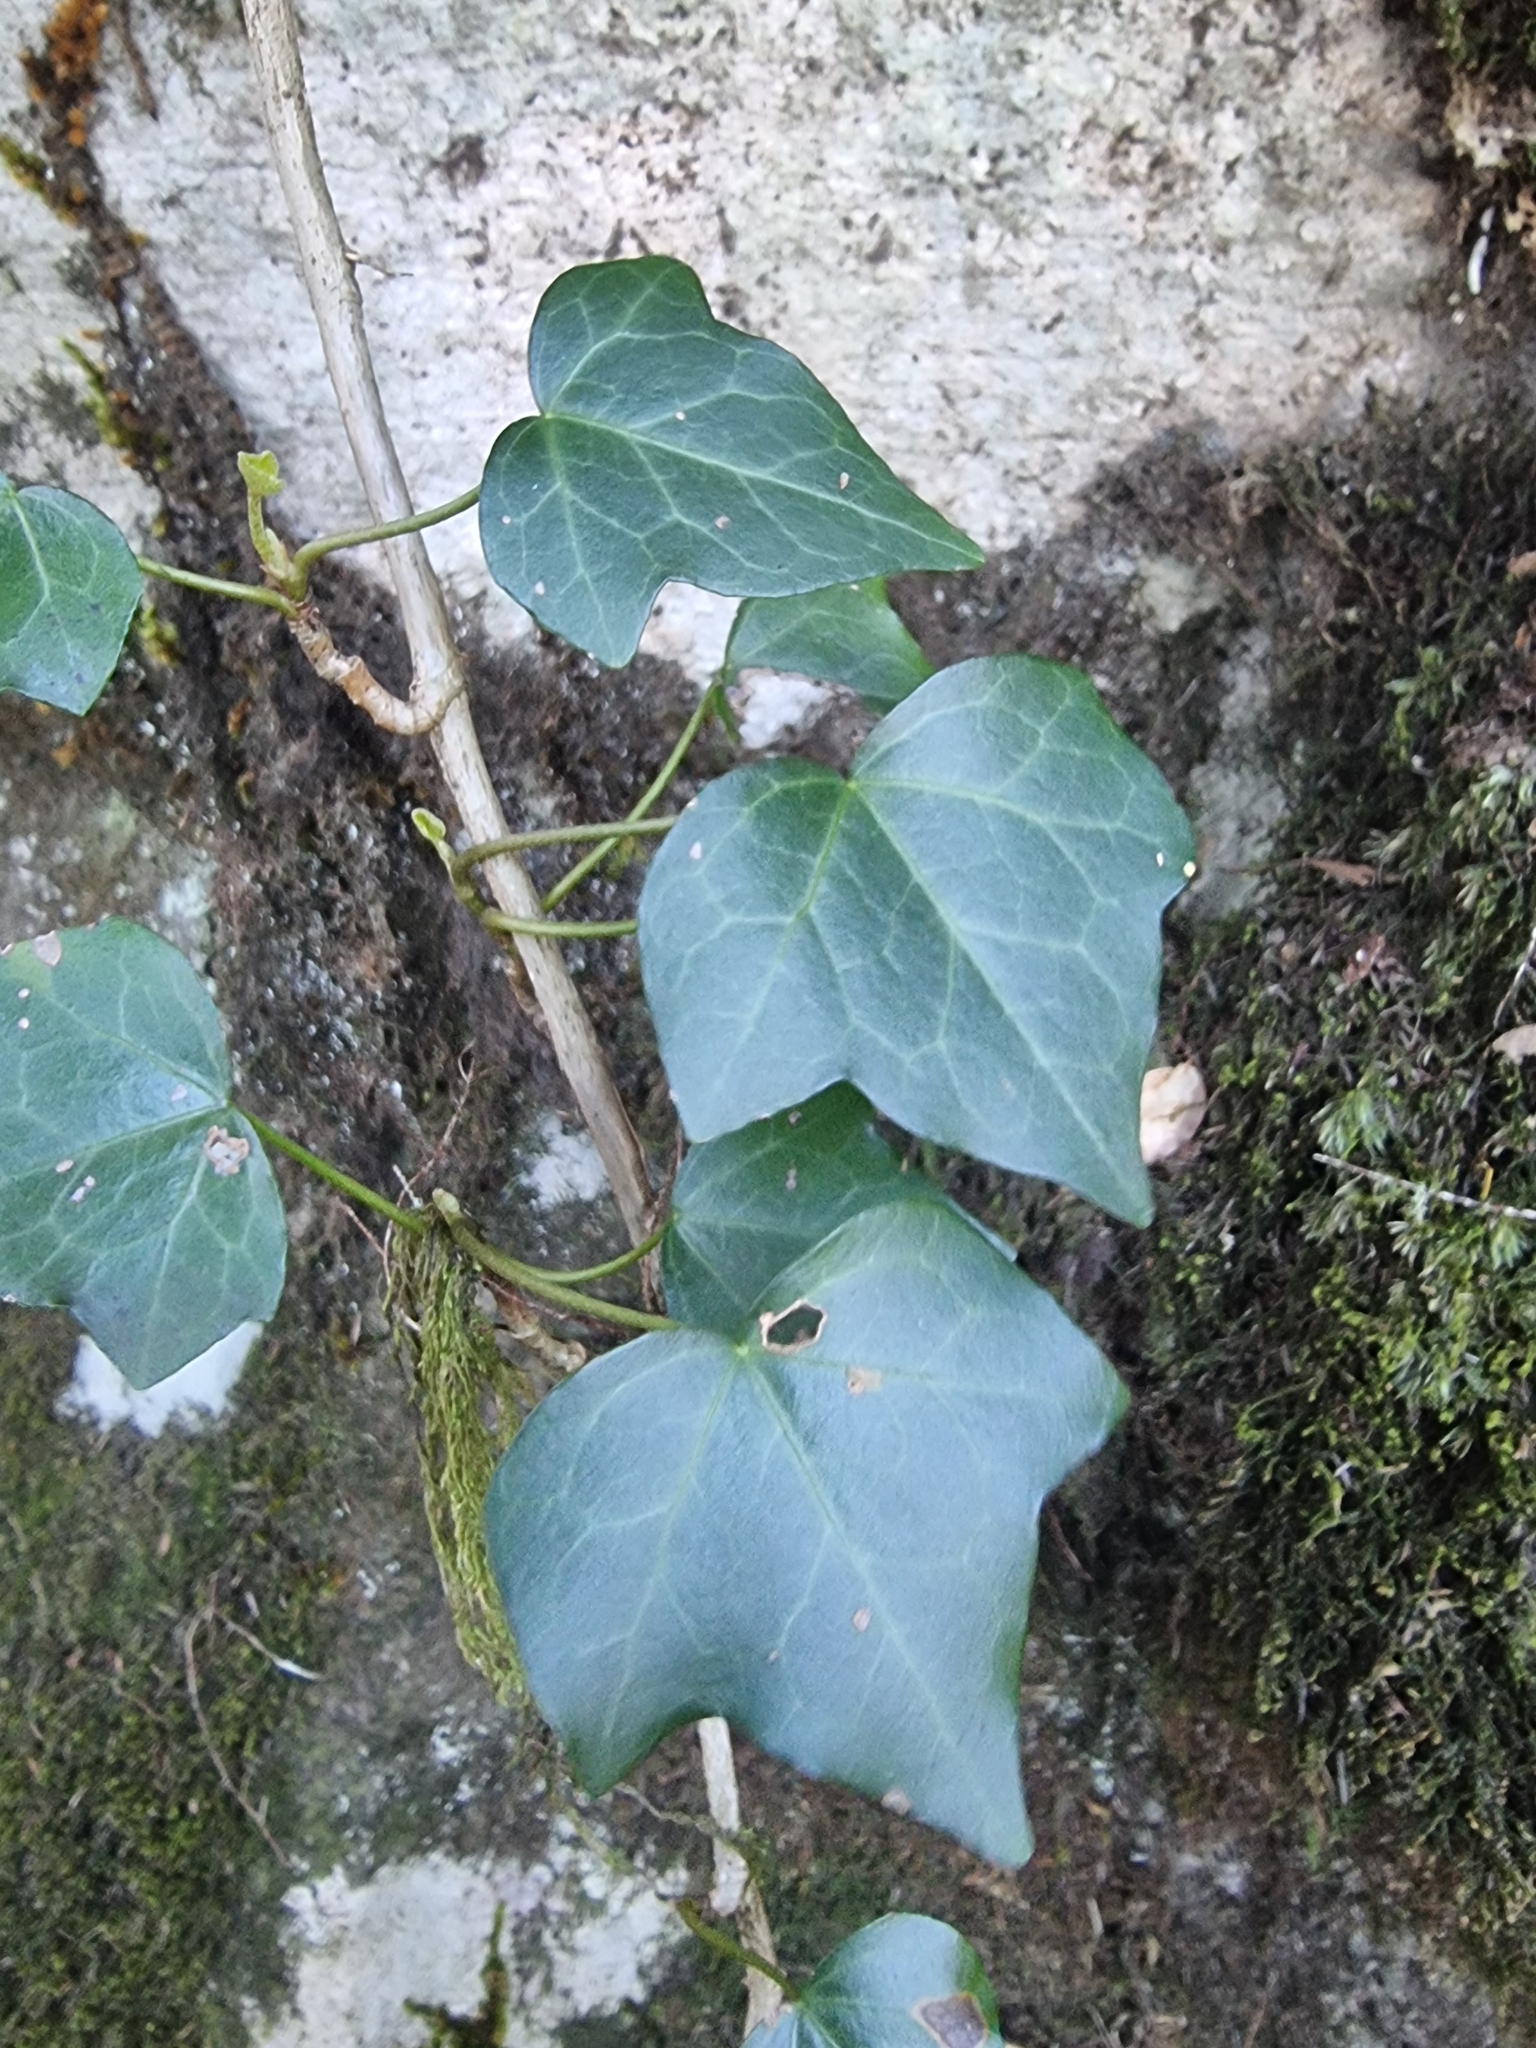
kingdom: Plantae
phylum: Tracheophyta
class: Magnoliopsida
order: Apiales
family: Araliaceae
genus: Hedera
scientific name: Hedera maderensis
